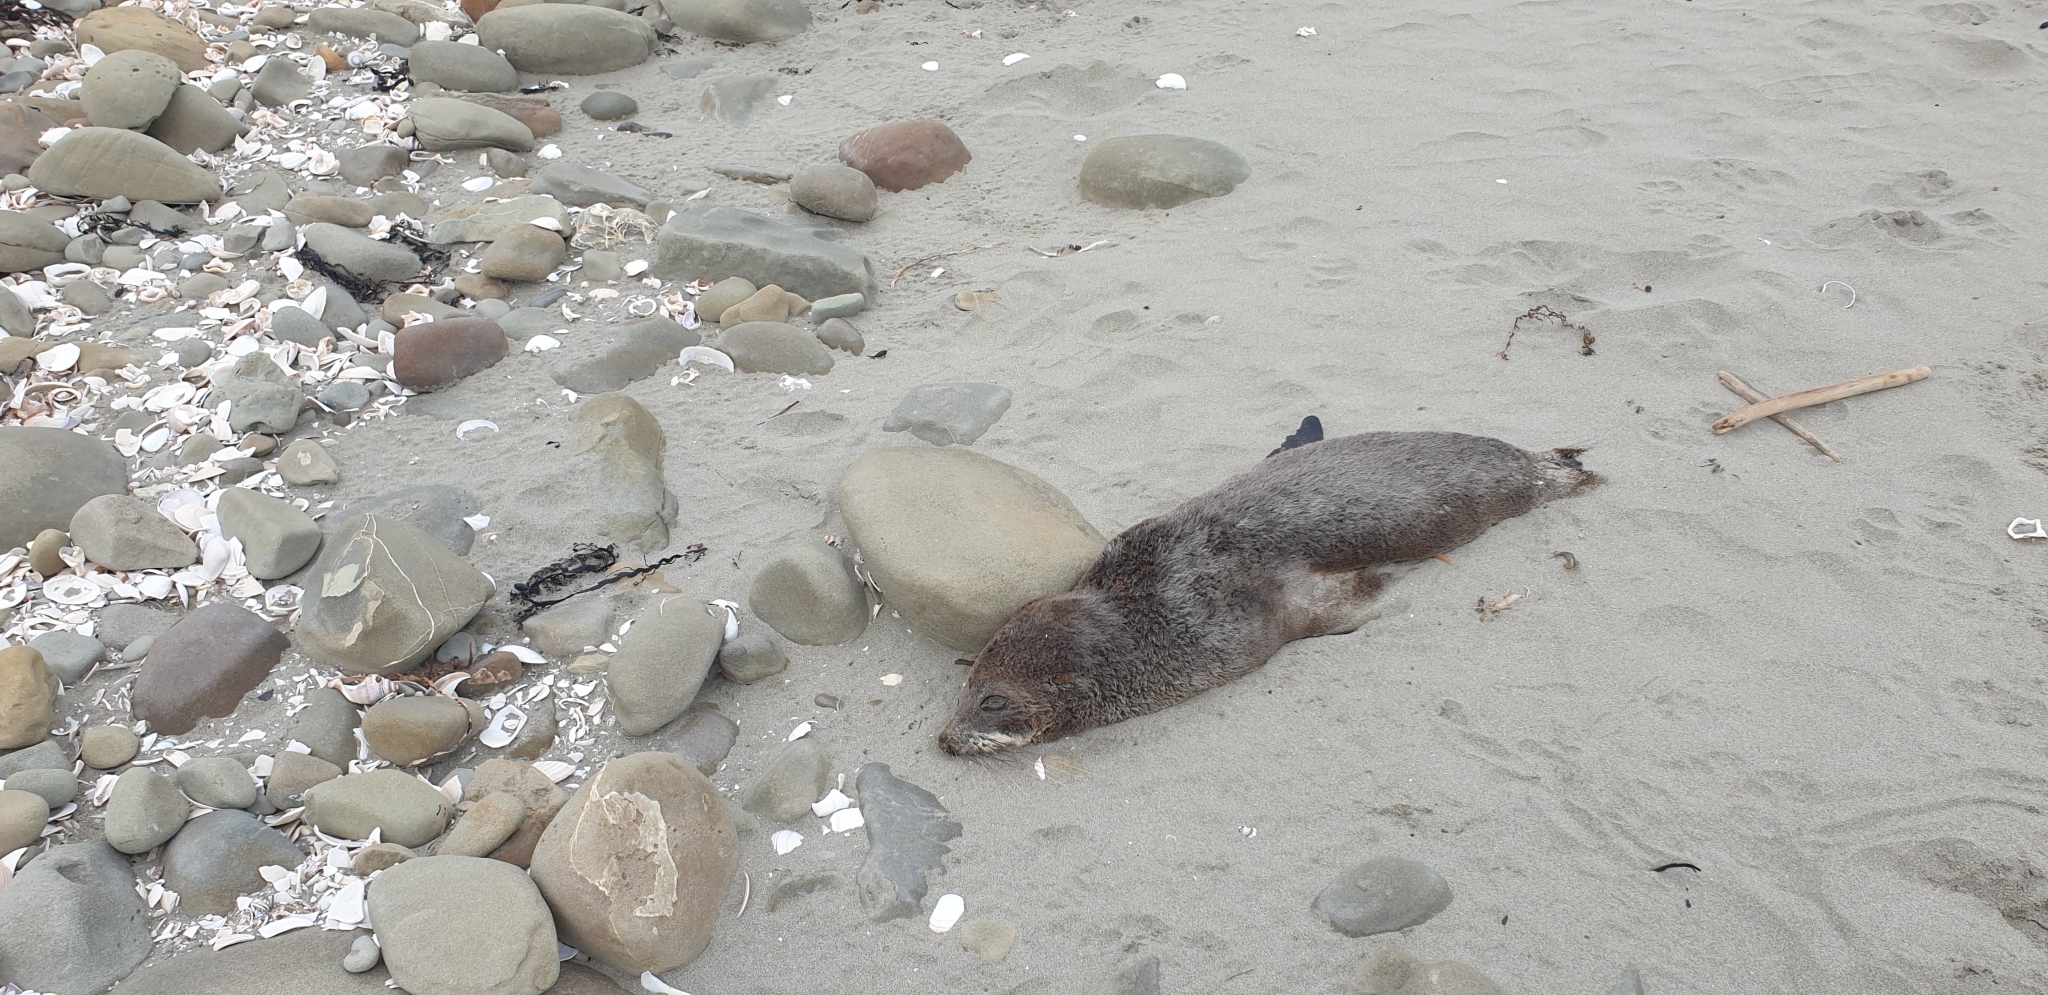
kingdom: Animalia
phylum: Chordata
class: Mammalia
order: Carnivora
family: Otariidae
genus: Arctocephalus
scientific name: Arctocephalus forsteri
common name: New zealand fur seal
